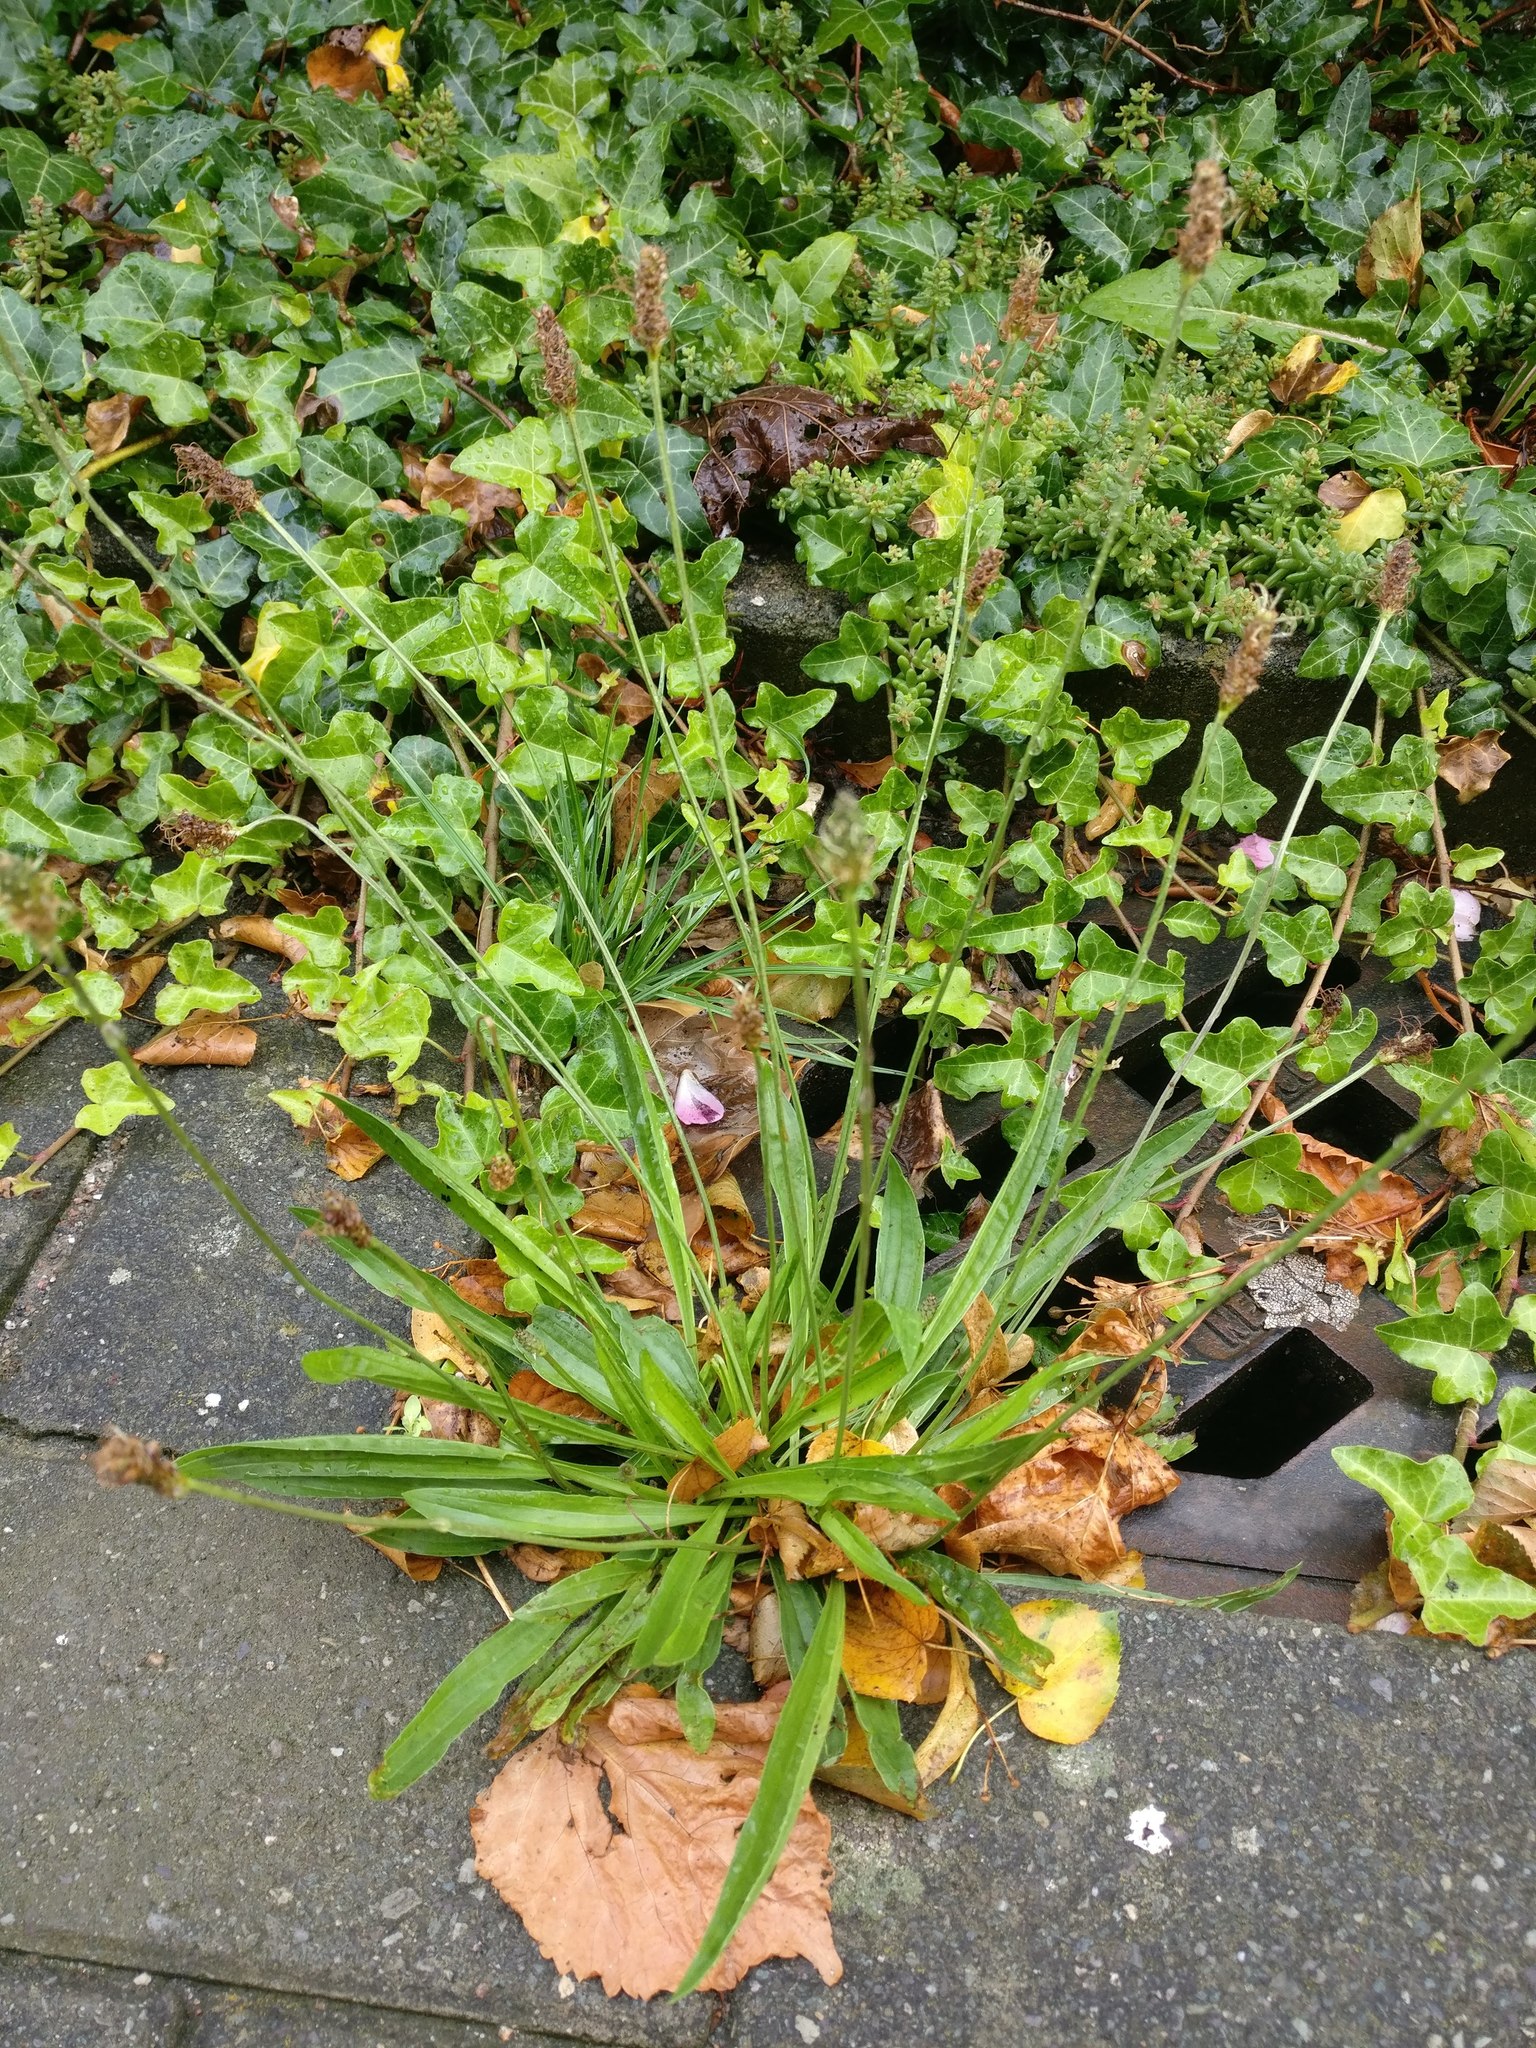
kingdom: Plantae
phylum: Tracheophyta
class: Magnoliopsida
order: Lamiales
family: Plantaginaceae
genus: Plantago
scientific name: Plantago lanceolata
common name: Ribwort plantain
